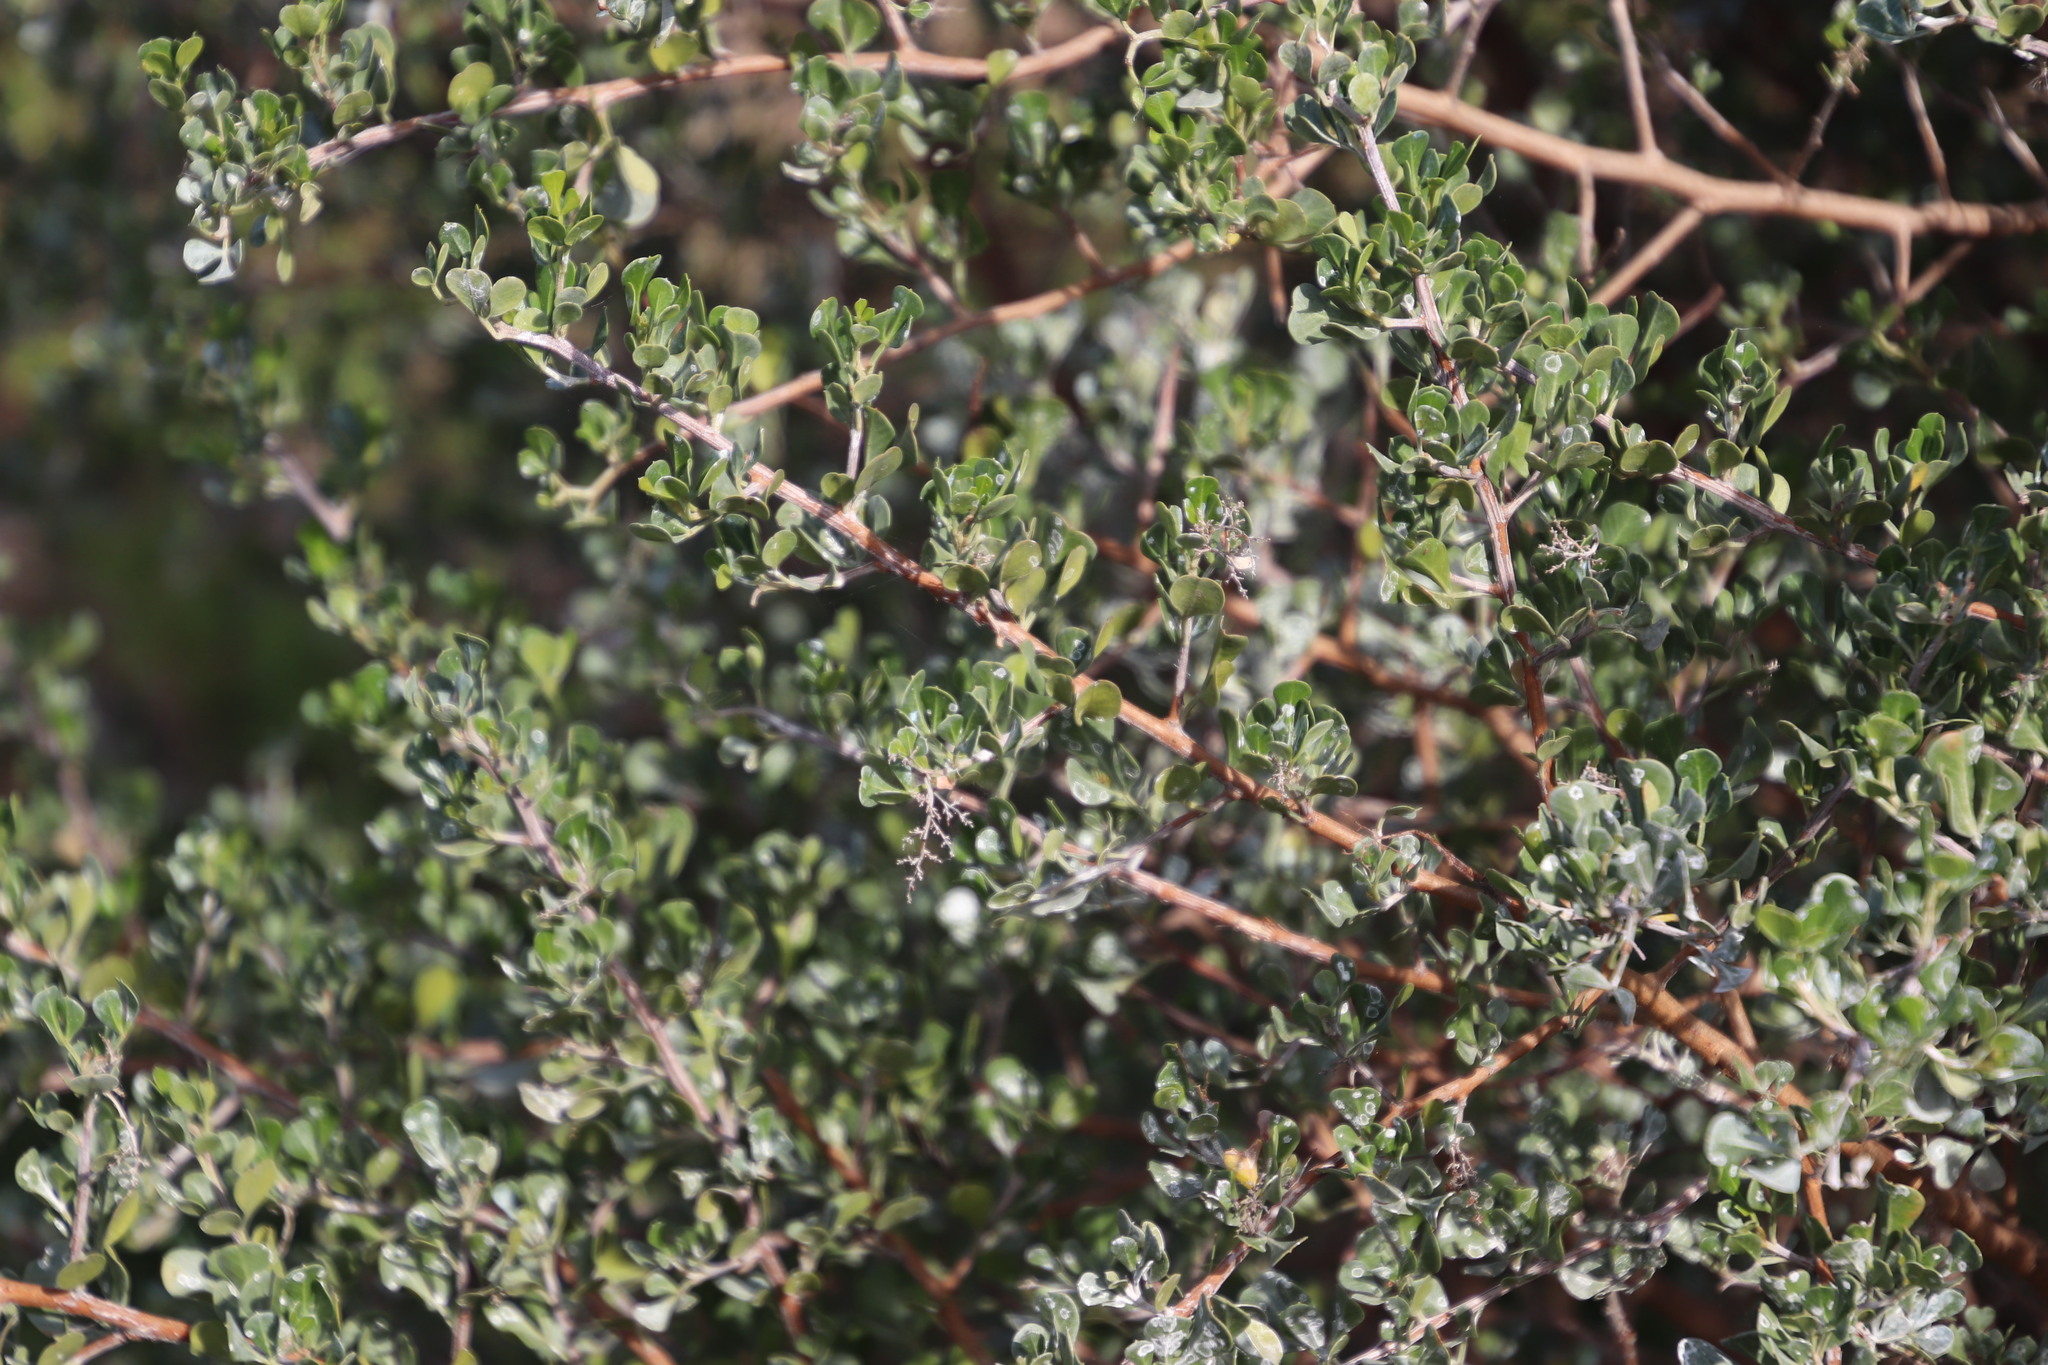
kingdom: Plantae
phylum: Tracheophyta
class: Magnoliopsida
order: Sapindales
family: Anacardiaceae
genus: Searsia
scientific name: Searsia glauca
